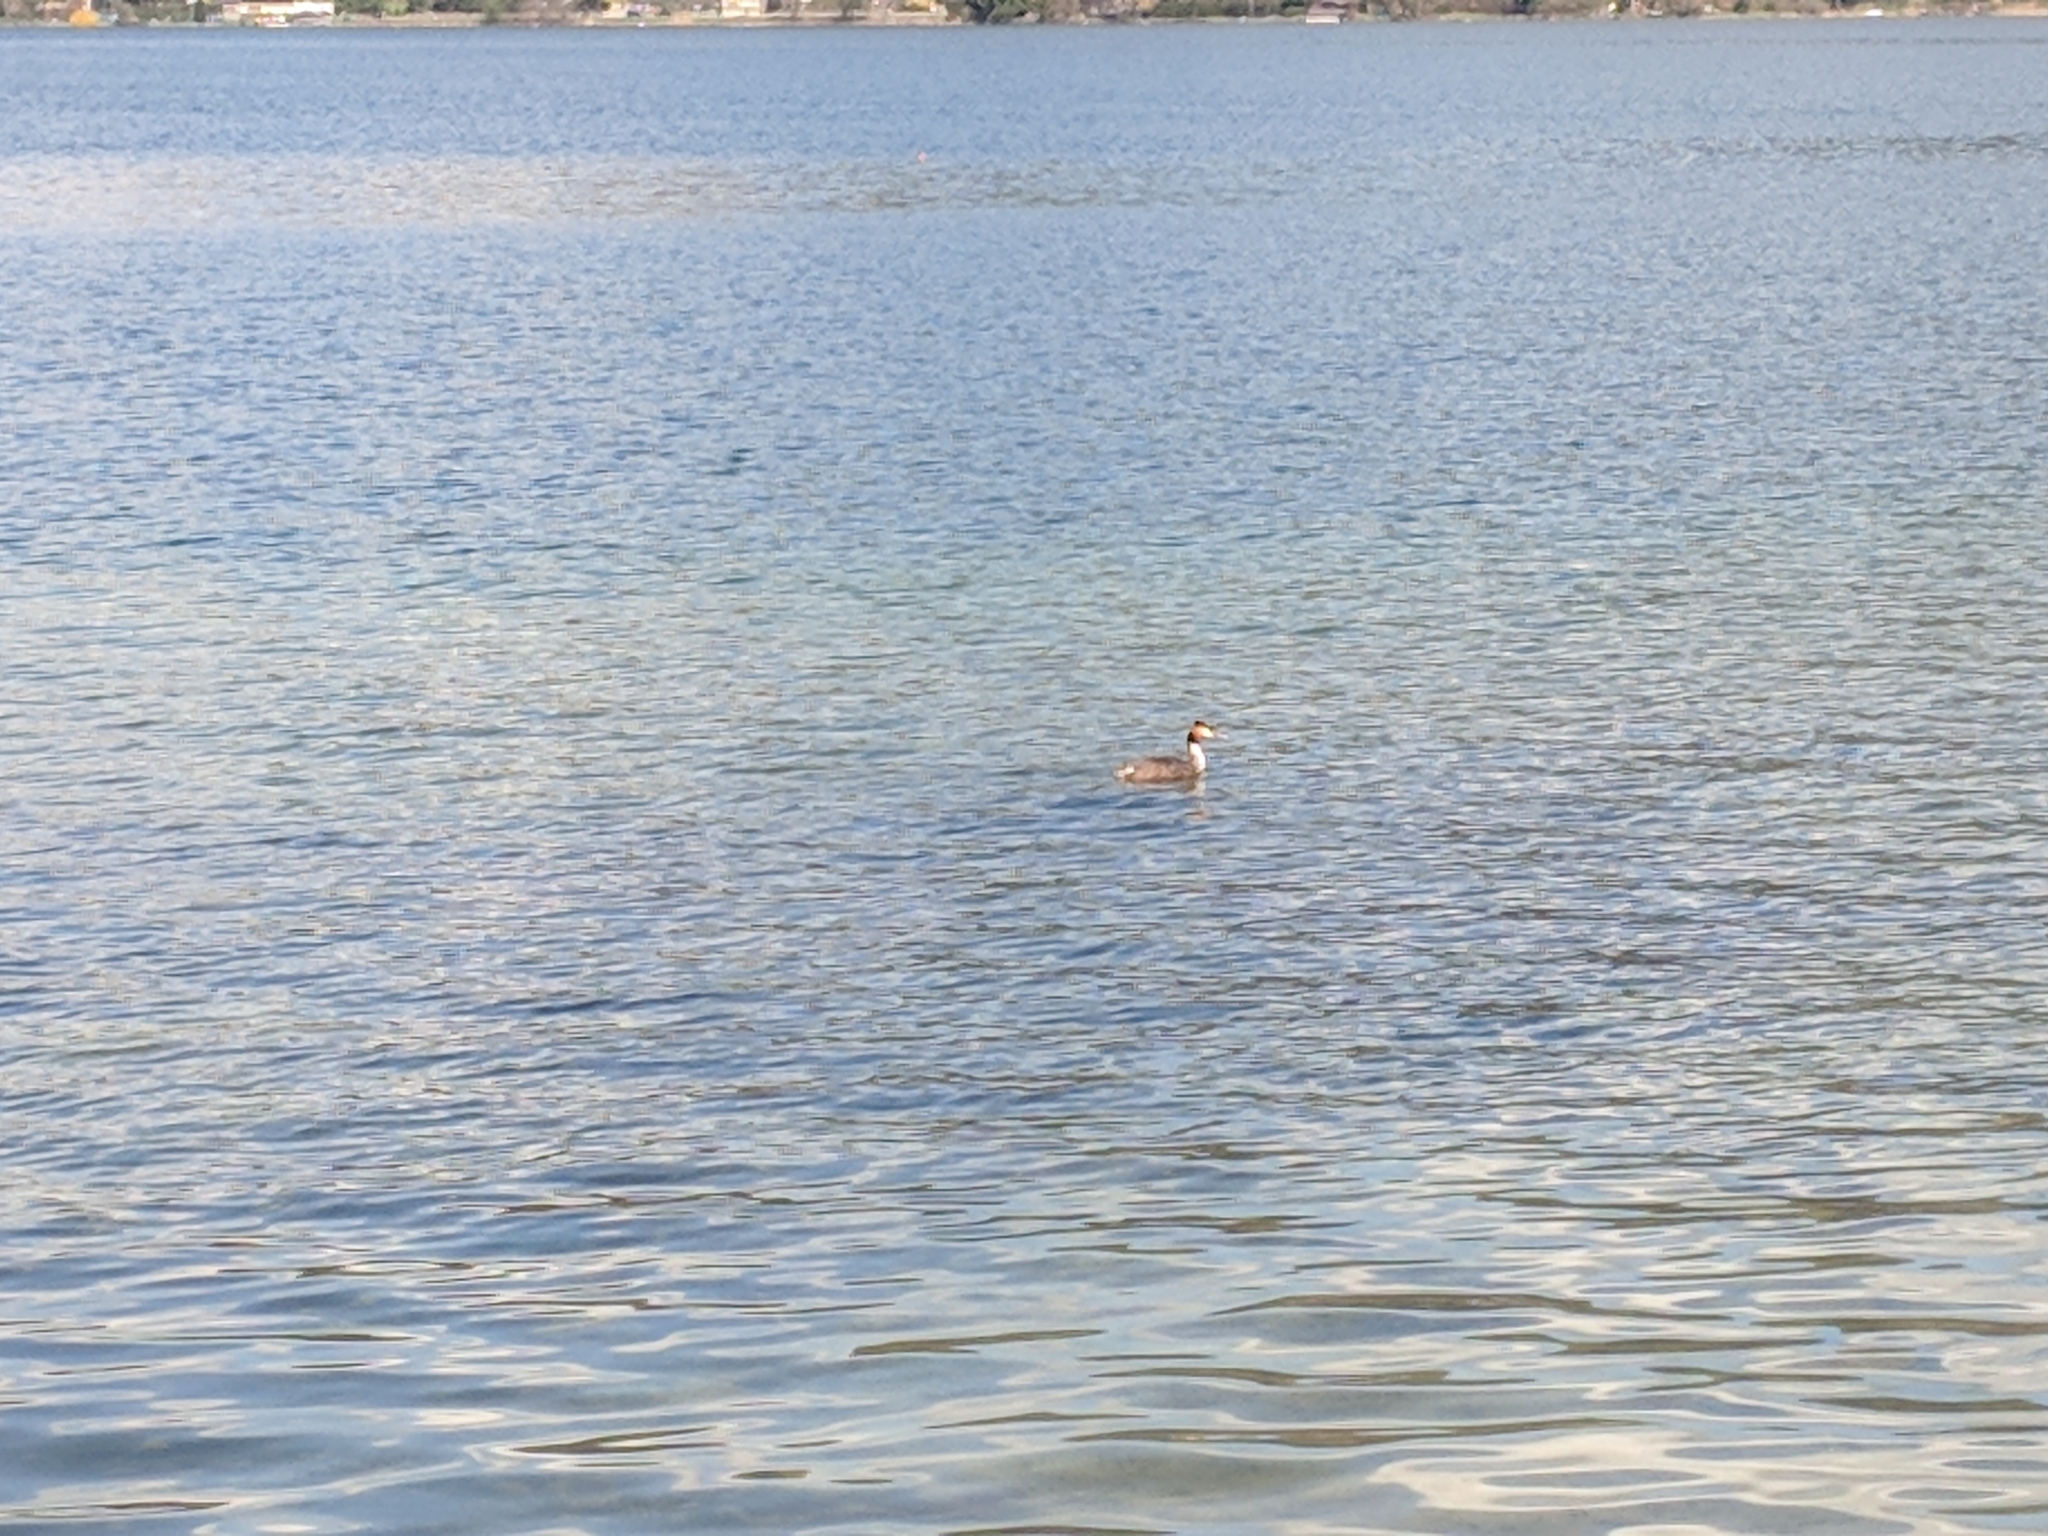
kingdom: Animalia
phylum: Chordata
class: Aves
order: Podicipediformes
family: Podicipedidae
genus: Podiceps
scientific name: Podiceps cristatus
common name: Great crested grebe
